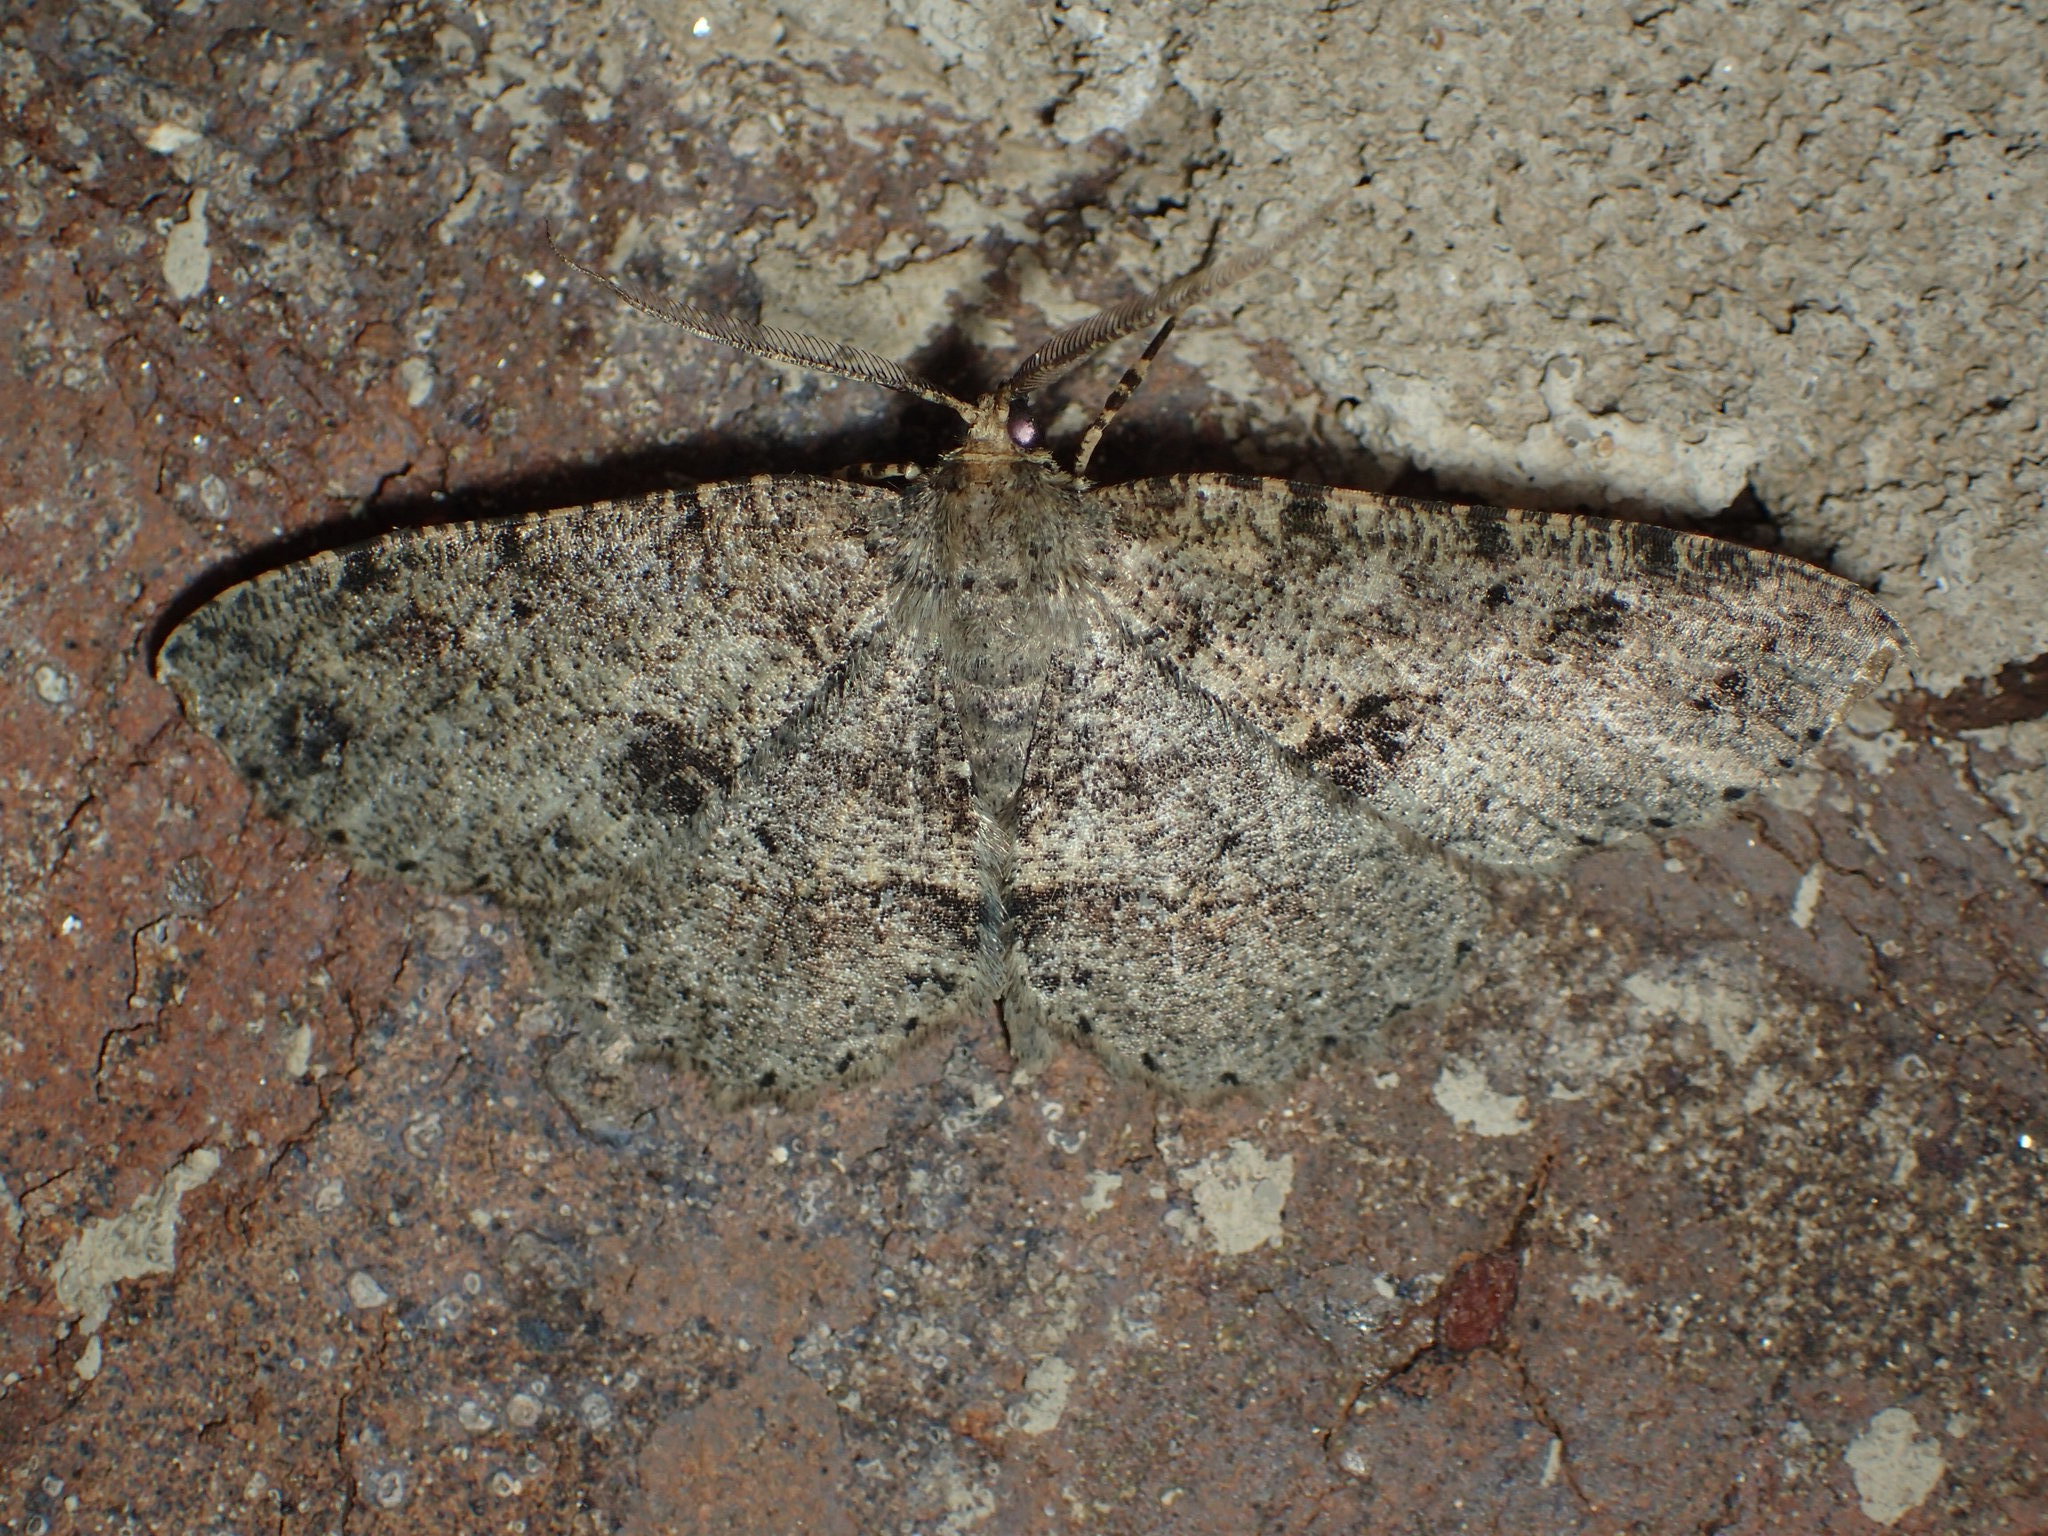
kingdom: Animalia
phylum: Arthropoda
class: Insecta
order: Lepidoptera
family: Geometridae
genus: Melanolophia
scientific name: Melanolophia canadaria
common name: Canadian melanolophia
